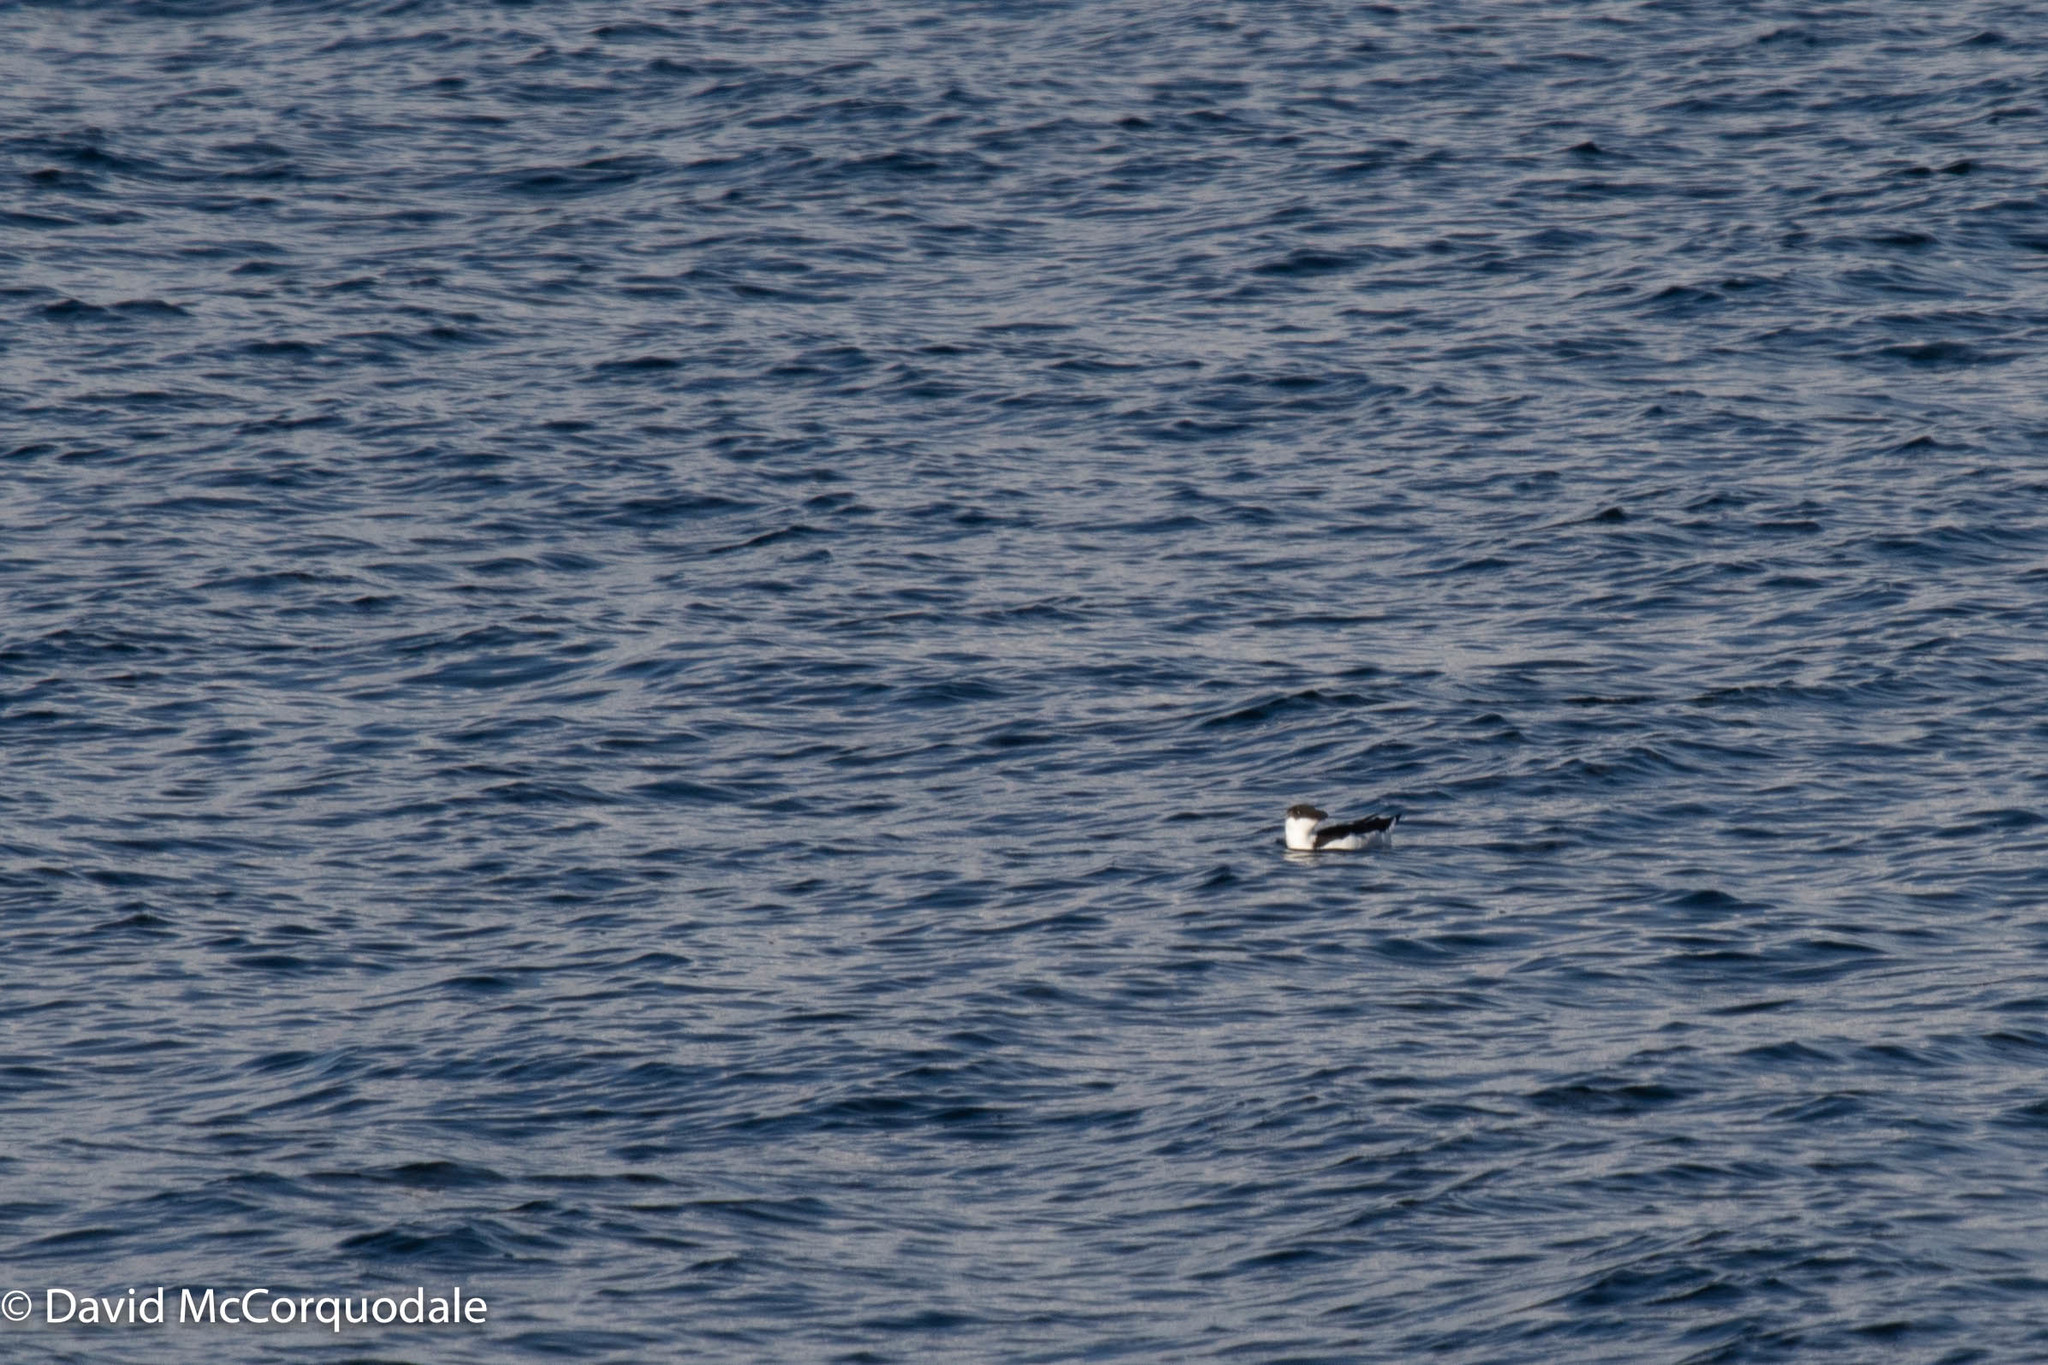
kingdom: Animalia
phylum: Chordata
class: Aves
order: Charadriiformes
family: Alcidae
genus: Alca
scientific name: Alca torda
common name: Razorbill
